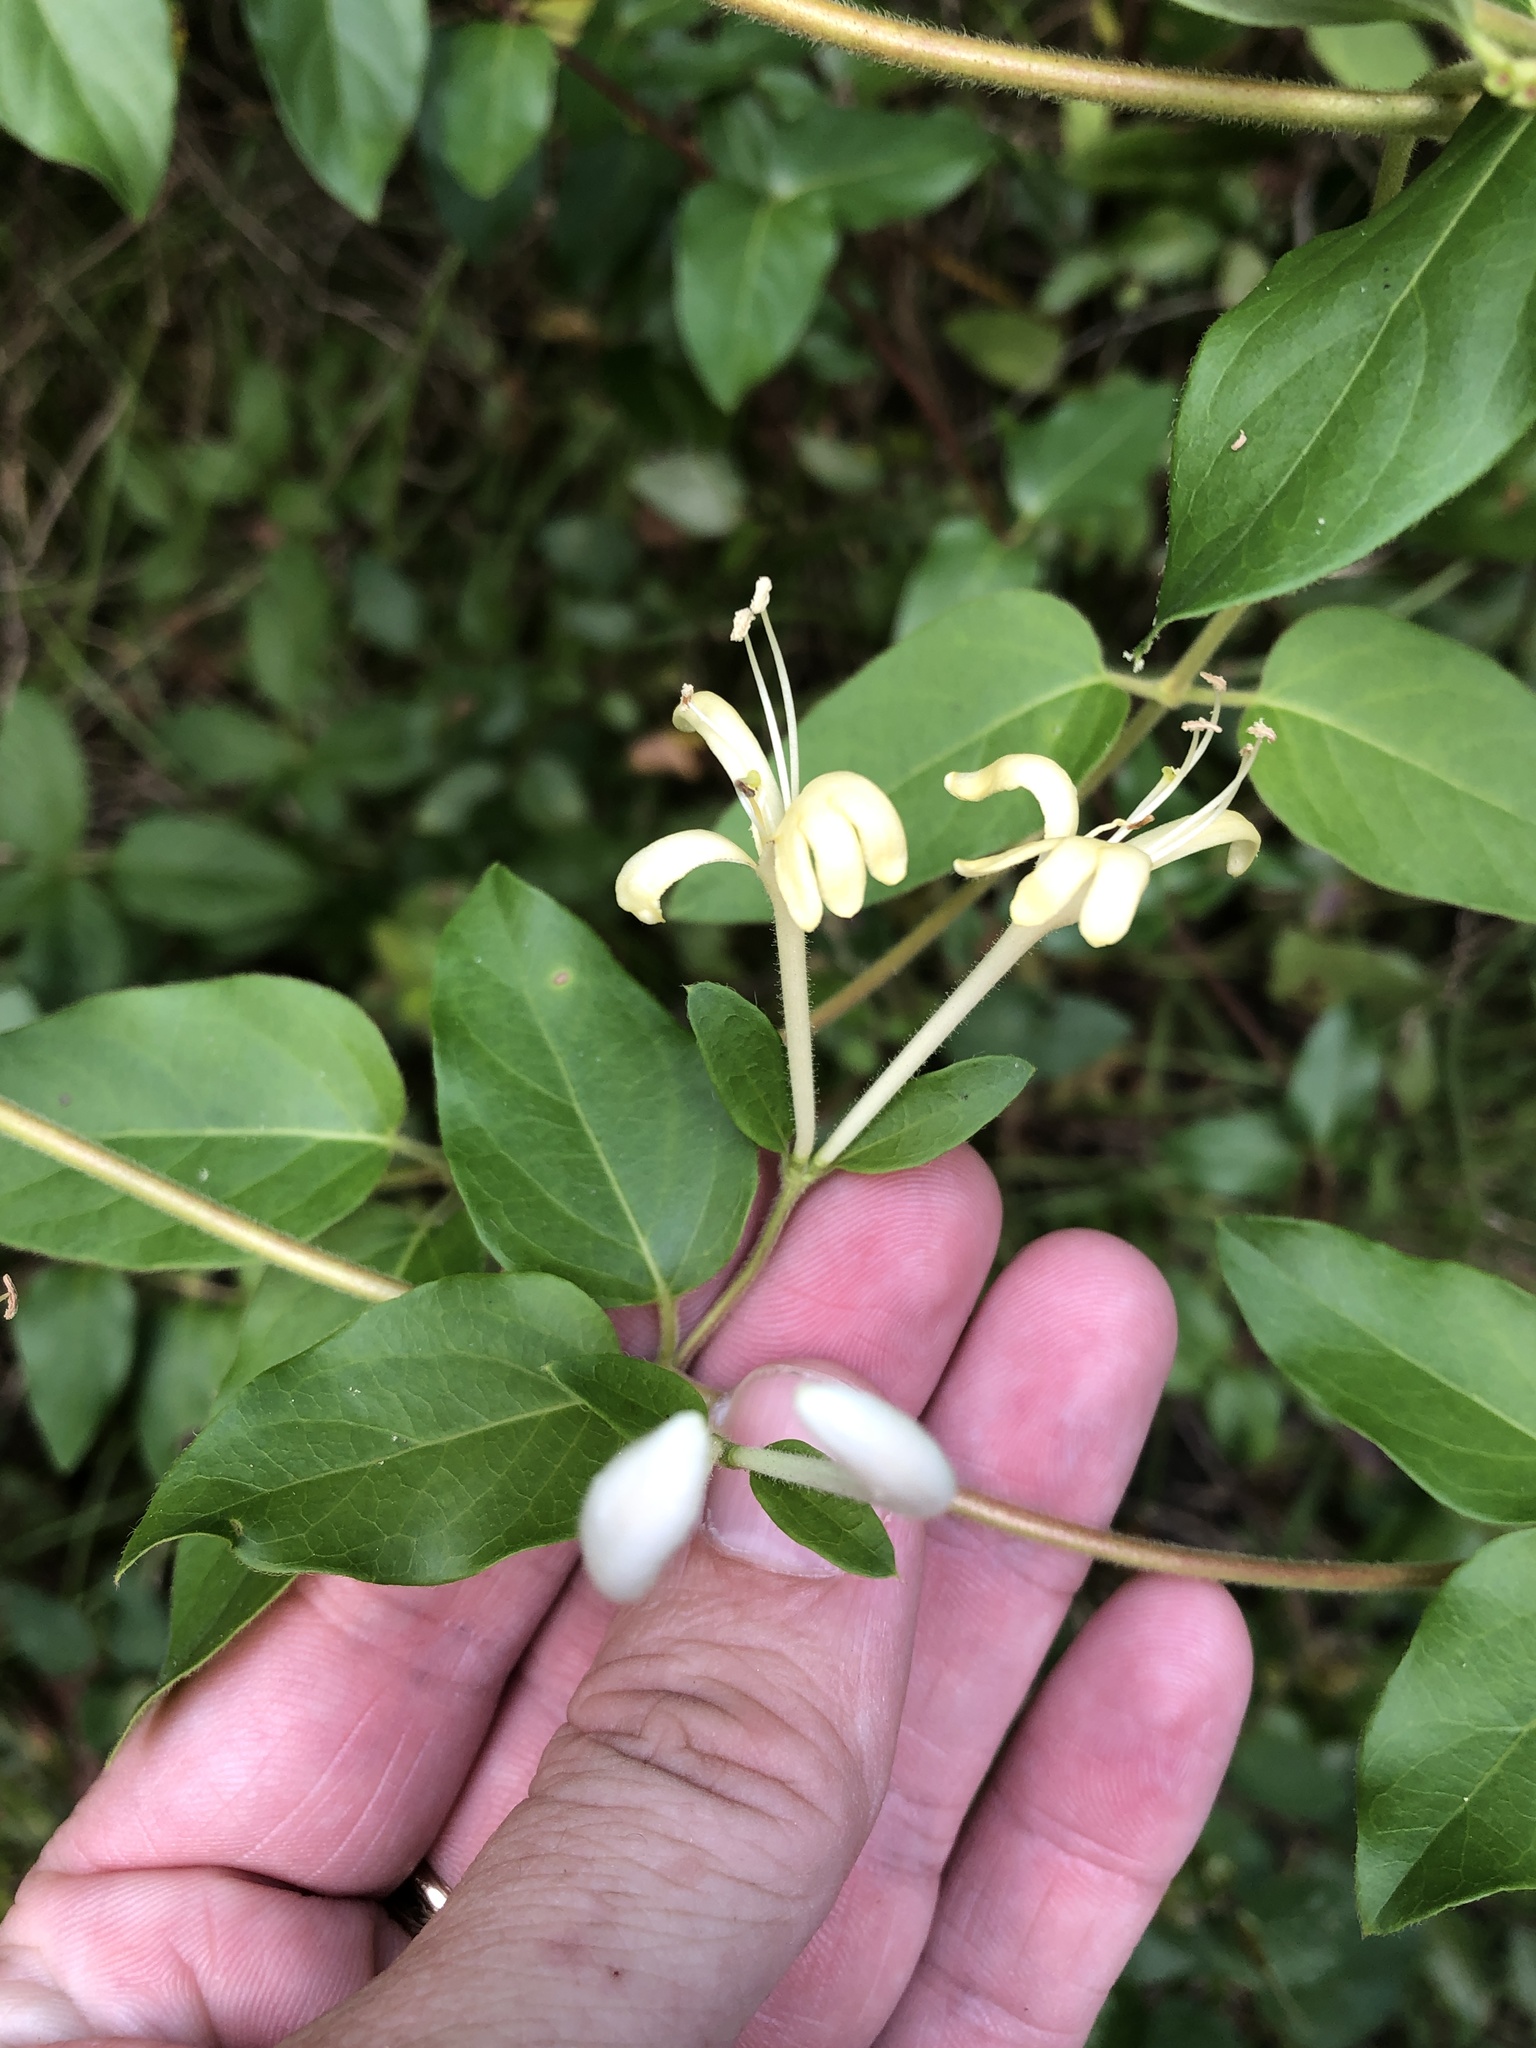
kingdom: Plantae
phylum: Tracheophyta
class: Magnoliopsida
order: Dipsacales
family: Caprifoliaceae
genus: Lonicera
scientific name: Lonicera japonica
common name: Japanese honeysuckle
